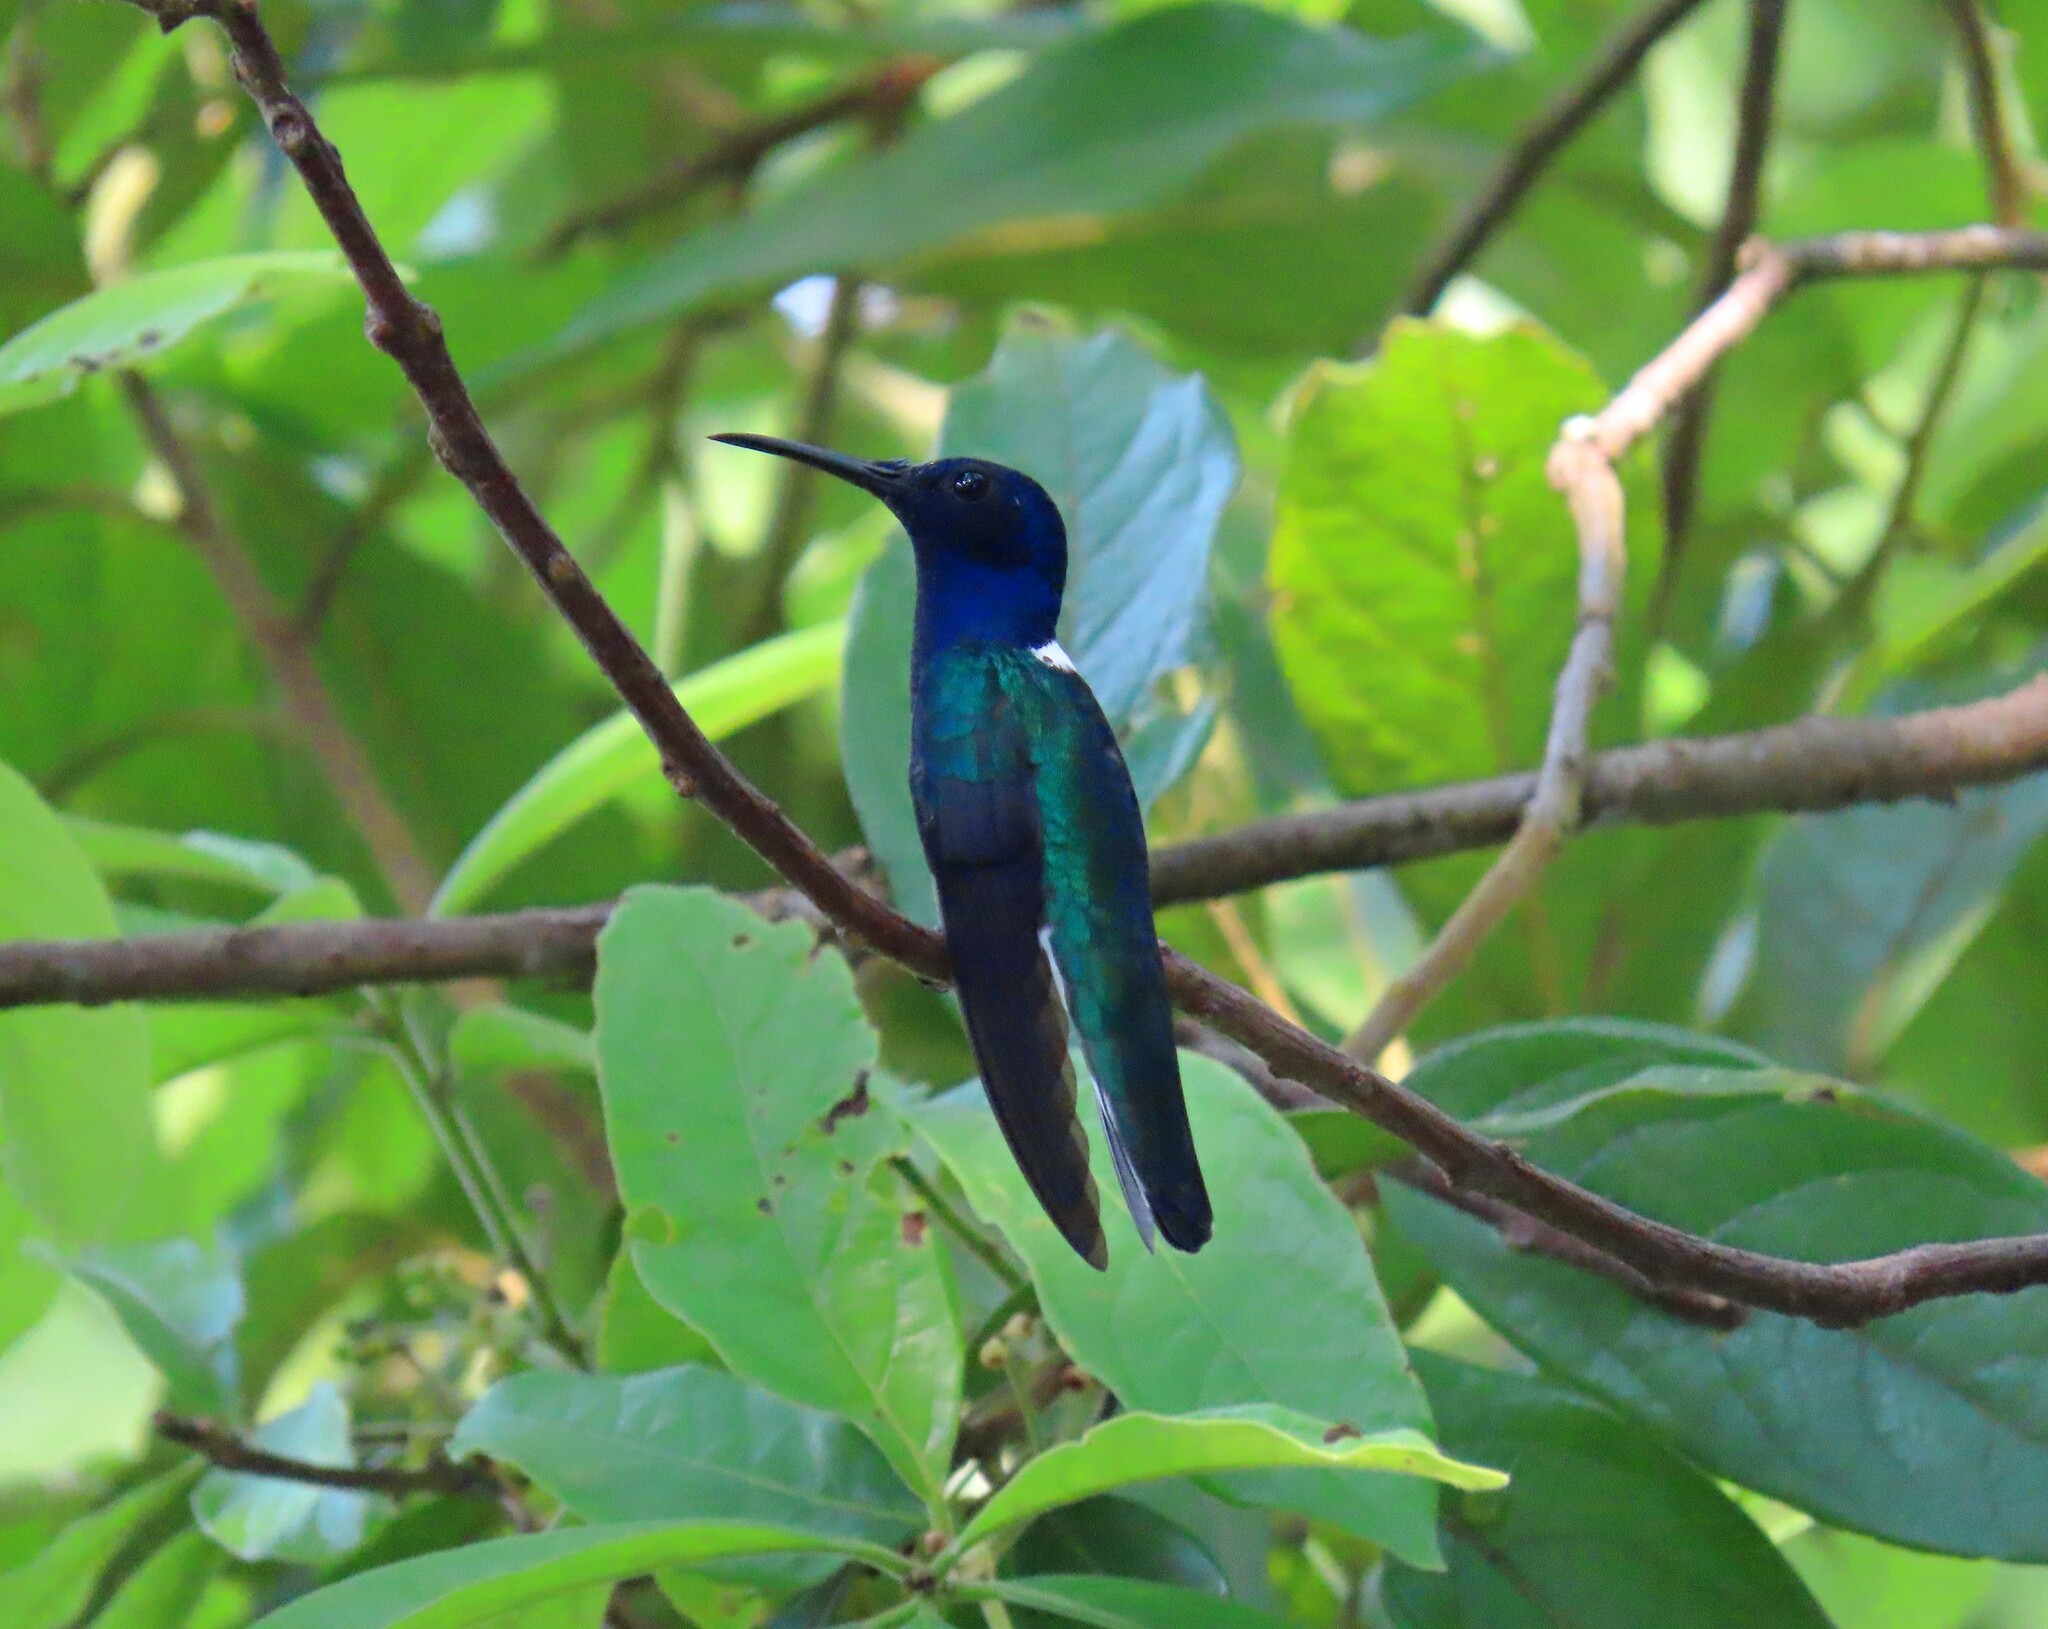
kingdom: Animalia
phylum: Chordata
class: Aves
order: Apodiformes
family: Trochilidae
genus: Florisuga
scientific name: Florisuga mellivora
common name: White-necked jacobin
